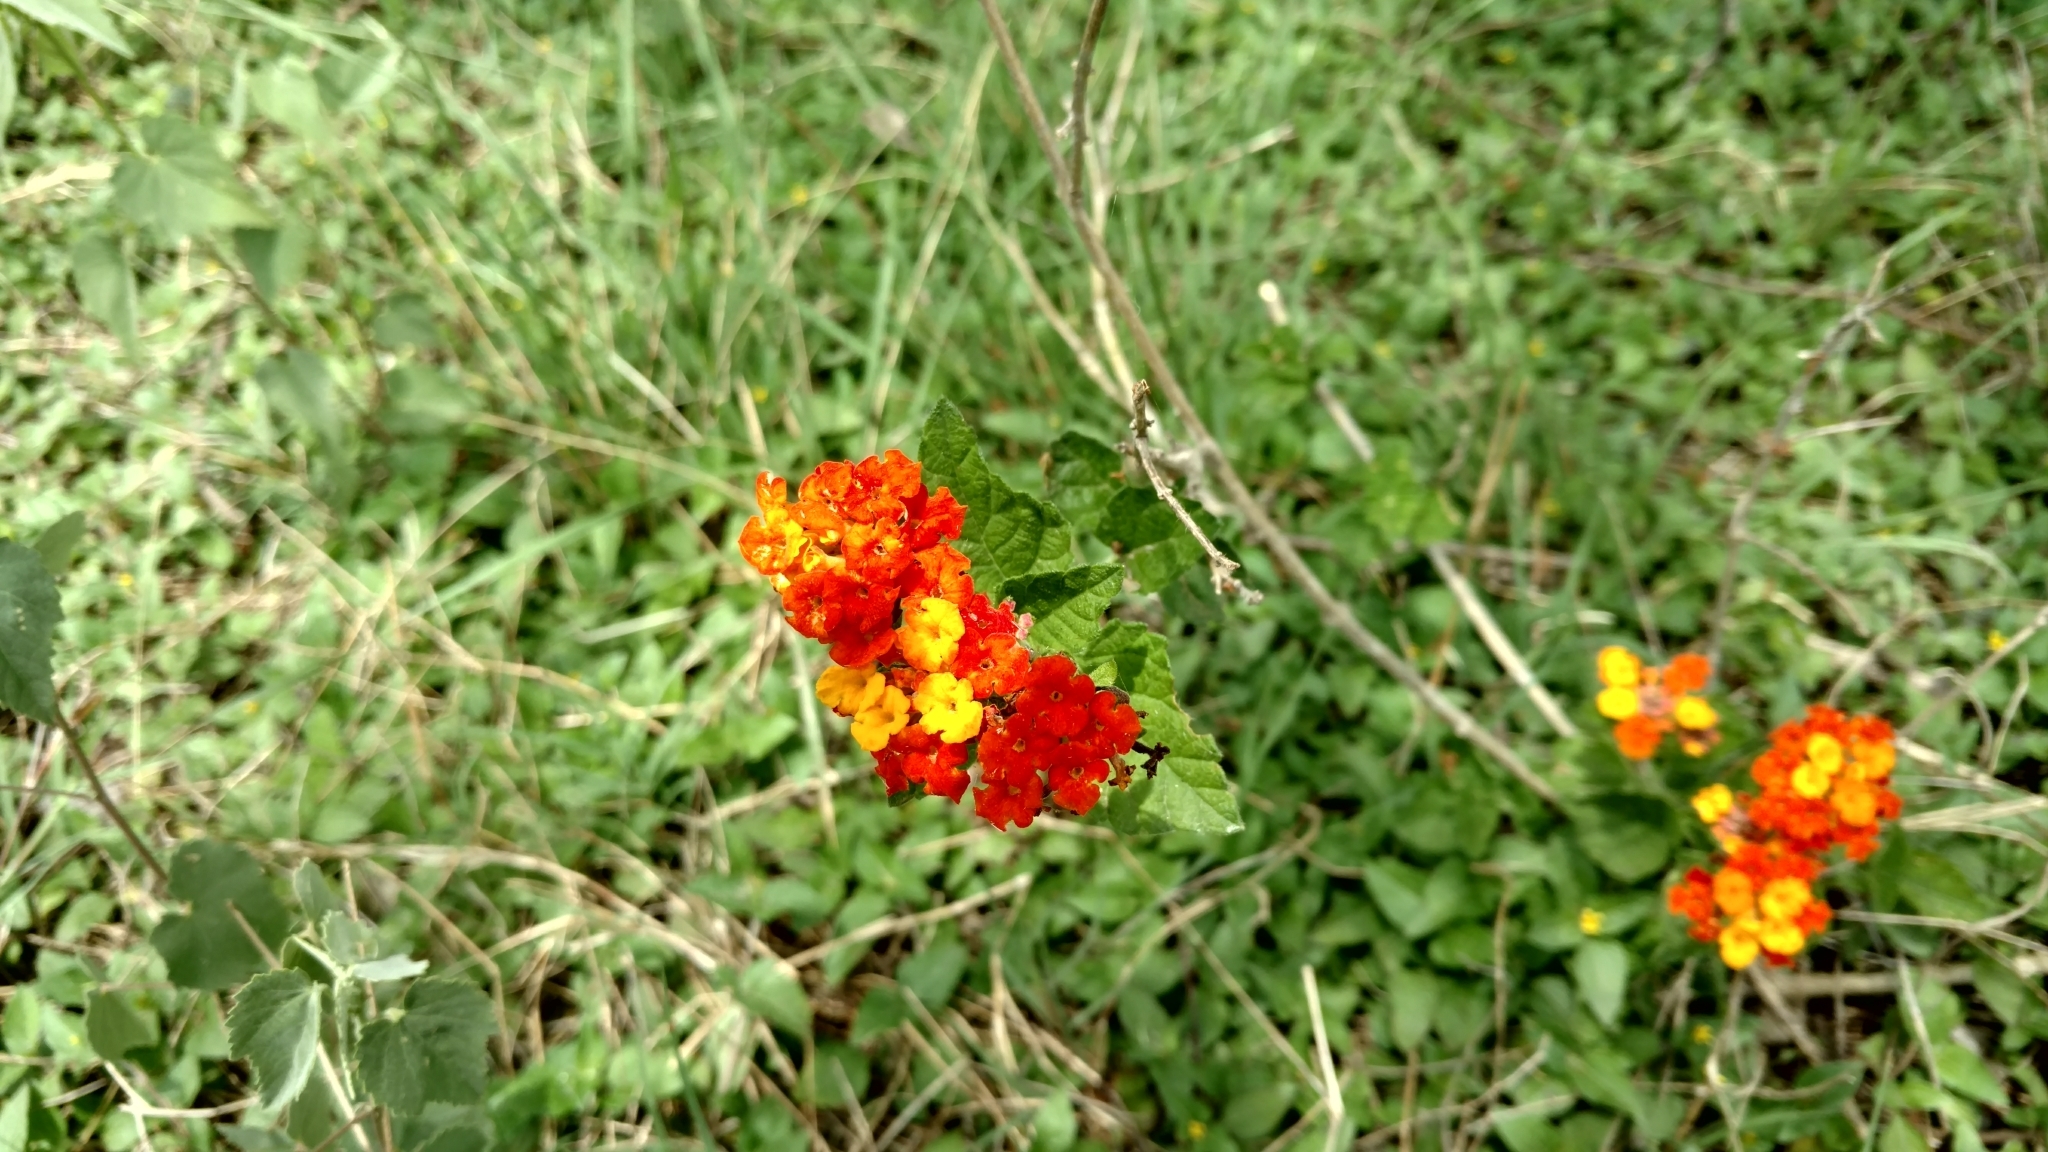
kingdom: Plantae
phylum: Tracheophyta
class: Magnoliopsida
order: Lamiales
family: Verbenaceae
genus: Lantana
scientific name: Lantana urticoides
